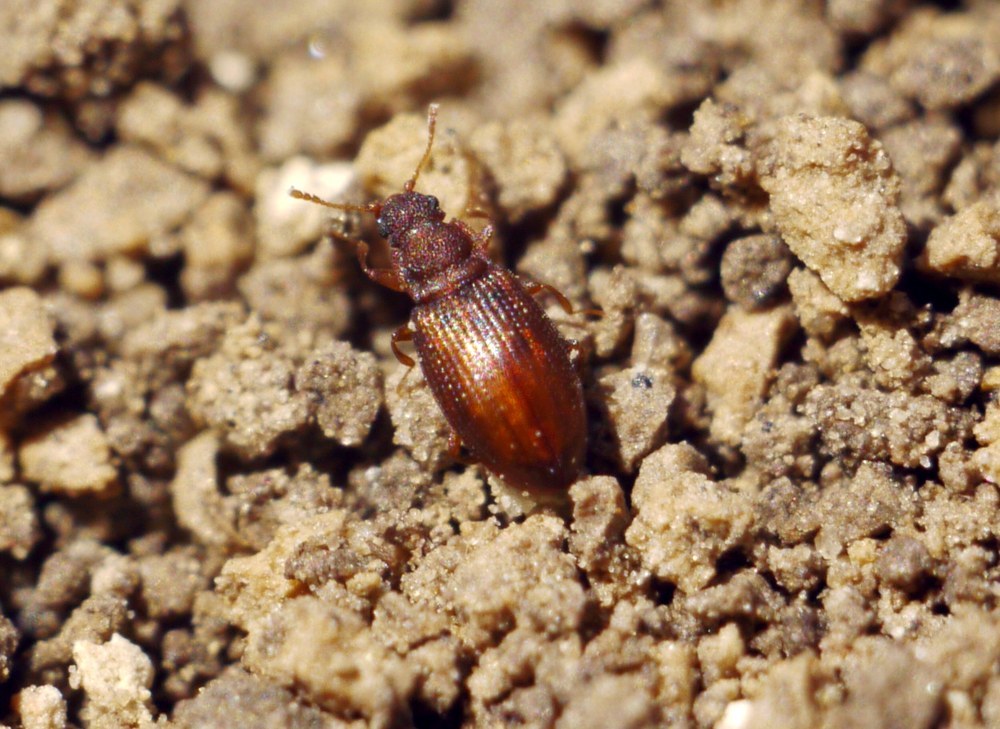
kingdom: Animalia
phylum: Arthropoda
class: Insecta
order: Coleoptera
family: Latridiidae
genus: Enicmus
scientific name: Enicmus histrio
